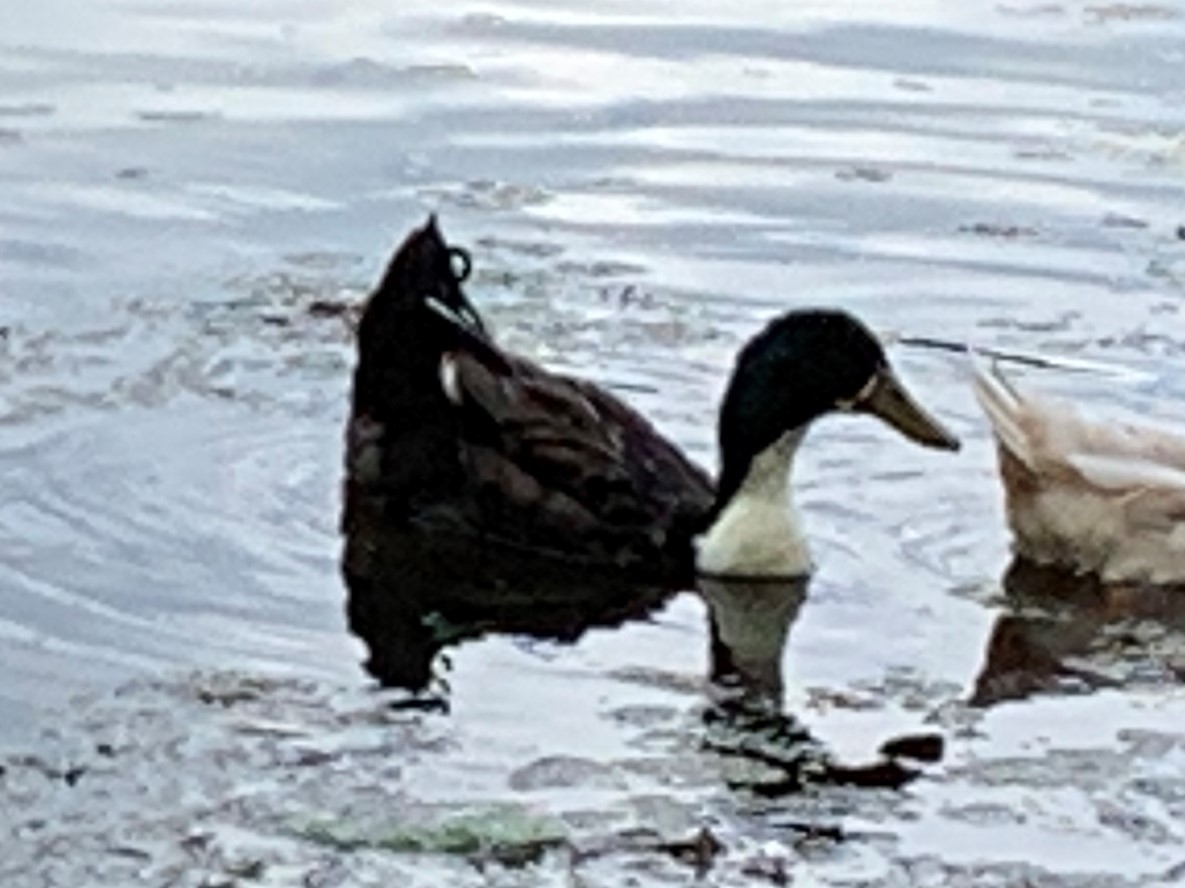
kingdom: Animalia
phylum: Chordata
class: Aves
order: Anseriformes
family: Anatidae
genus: Anas
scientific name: Anas platyrhynchos
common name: Mallard
